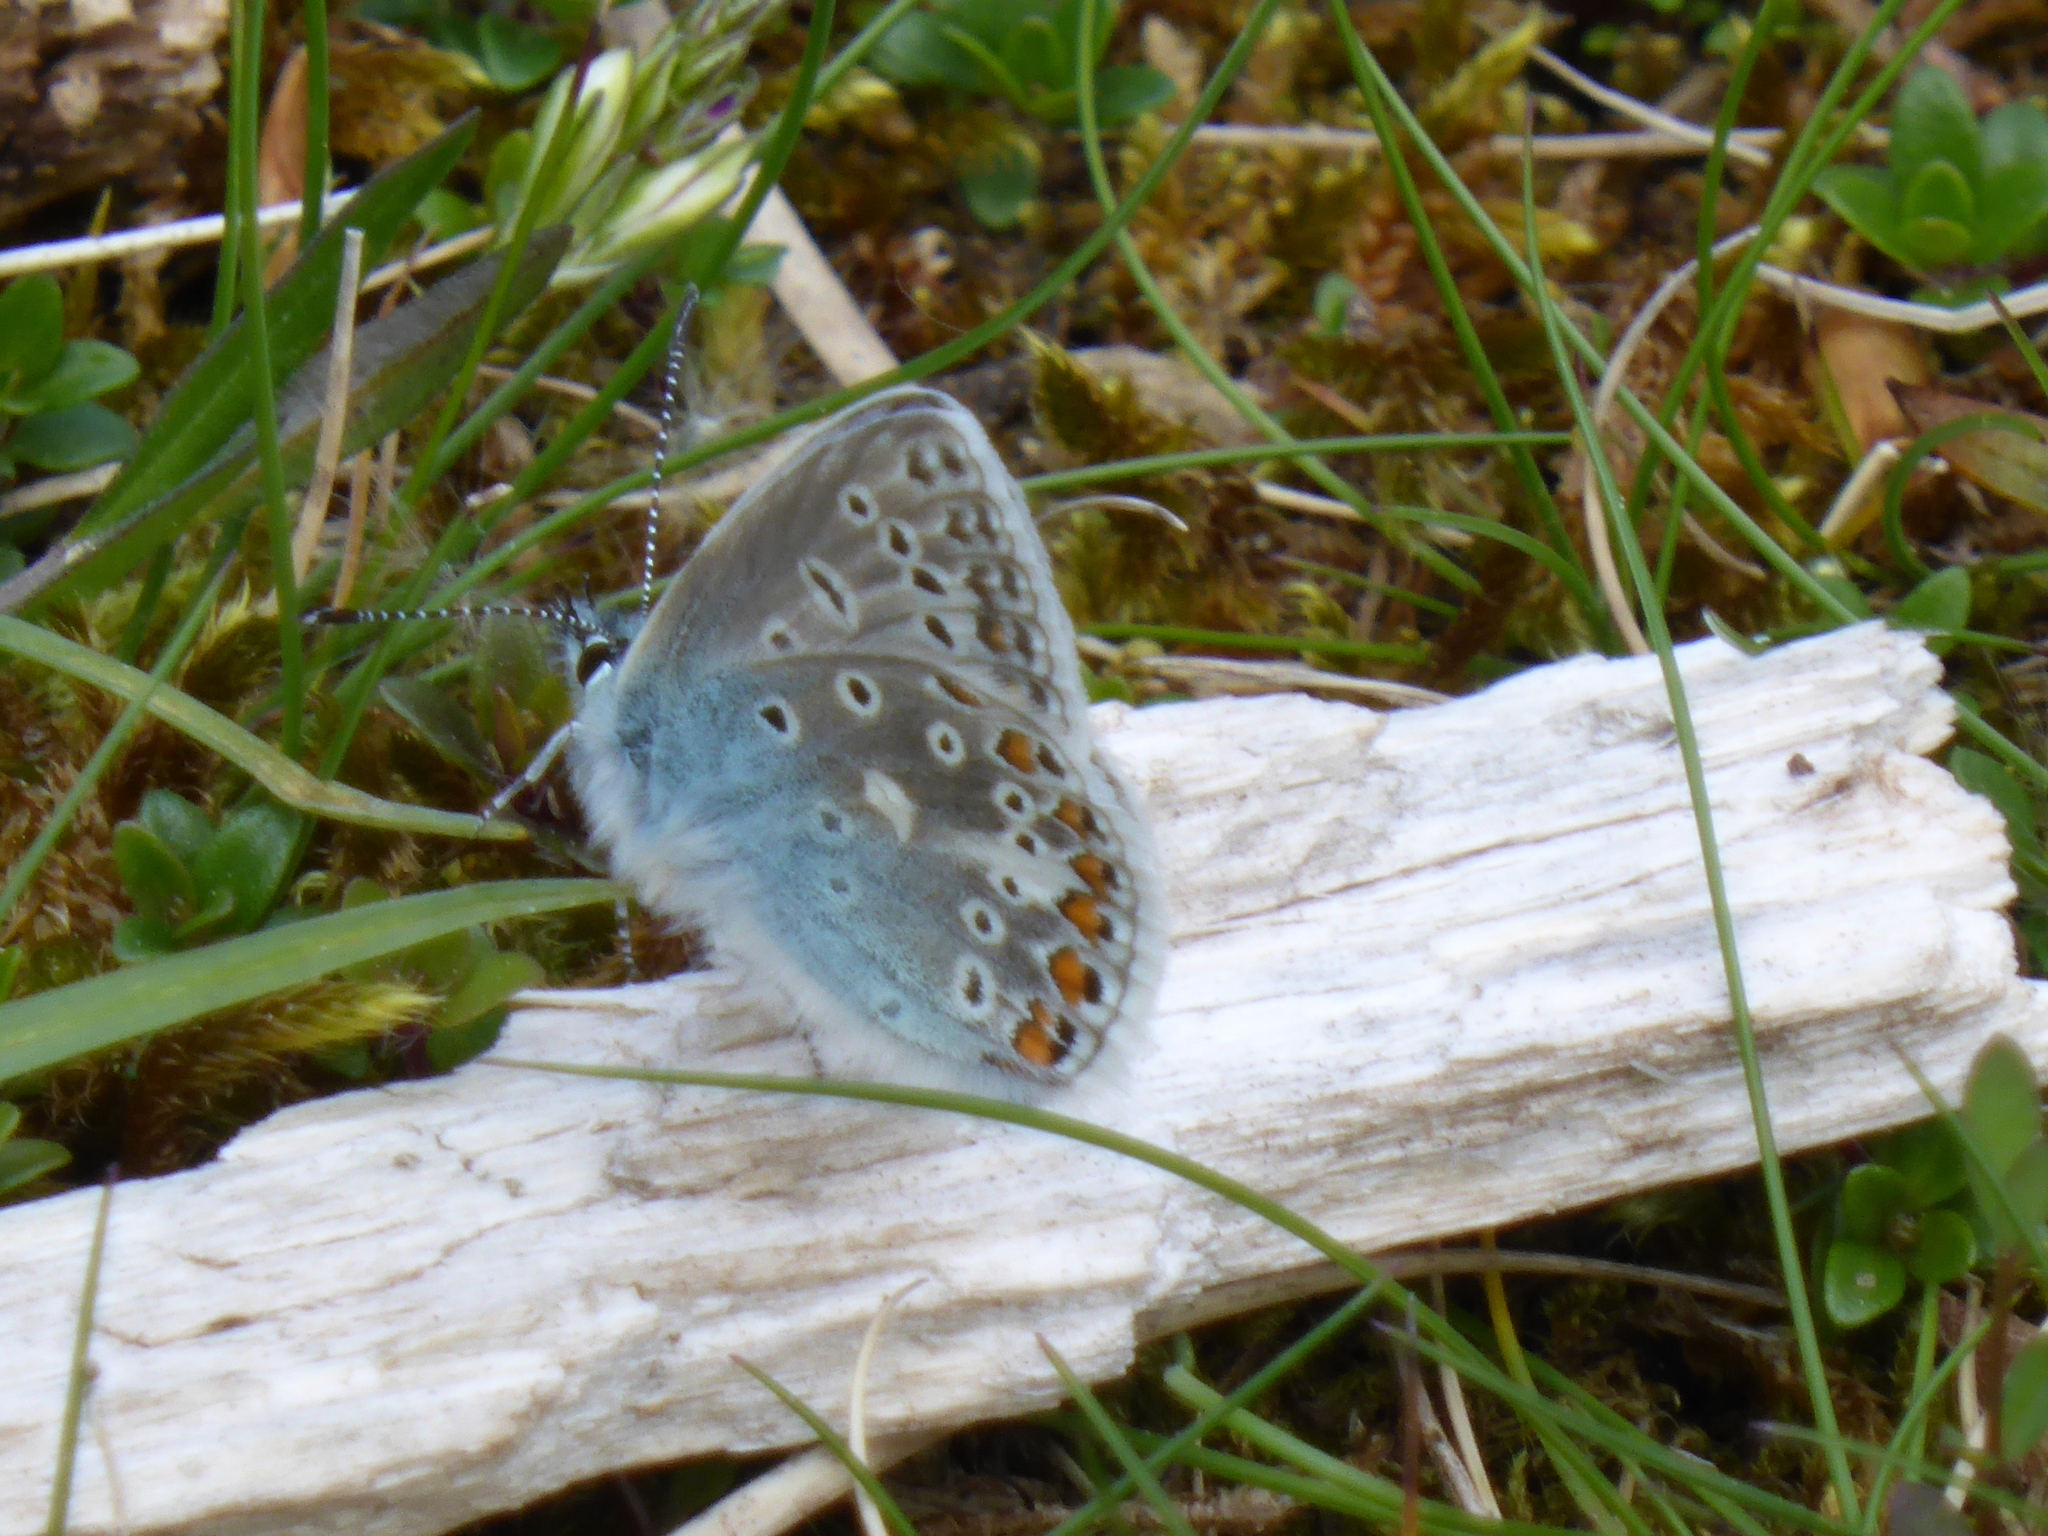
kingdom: Animalia
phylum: Arthropoda
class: Insecta
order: Lepidoptera
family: Lycaenidae
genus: Polyommatus
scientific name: Polyommatus icarus
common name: Common blue
